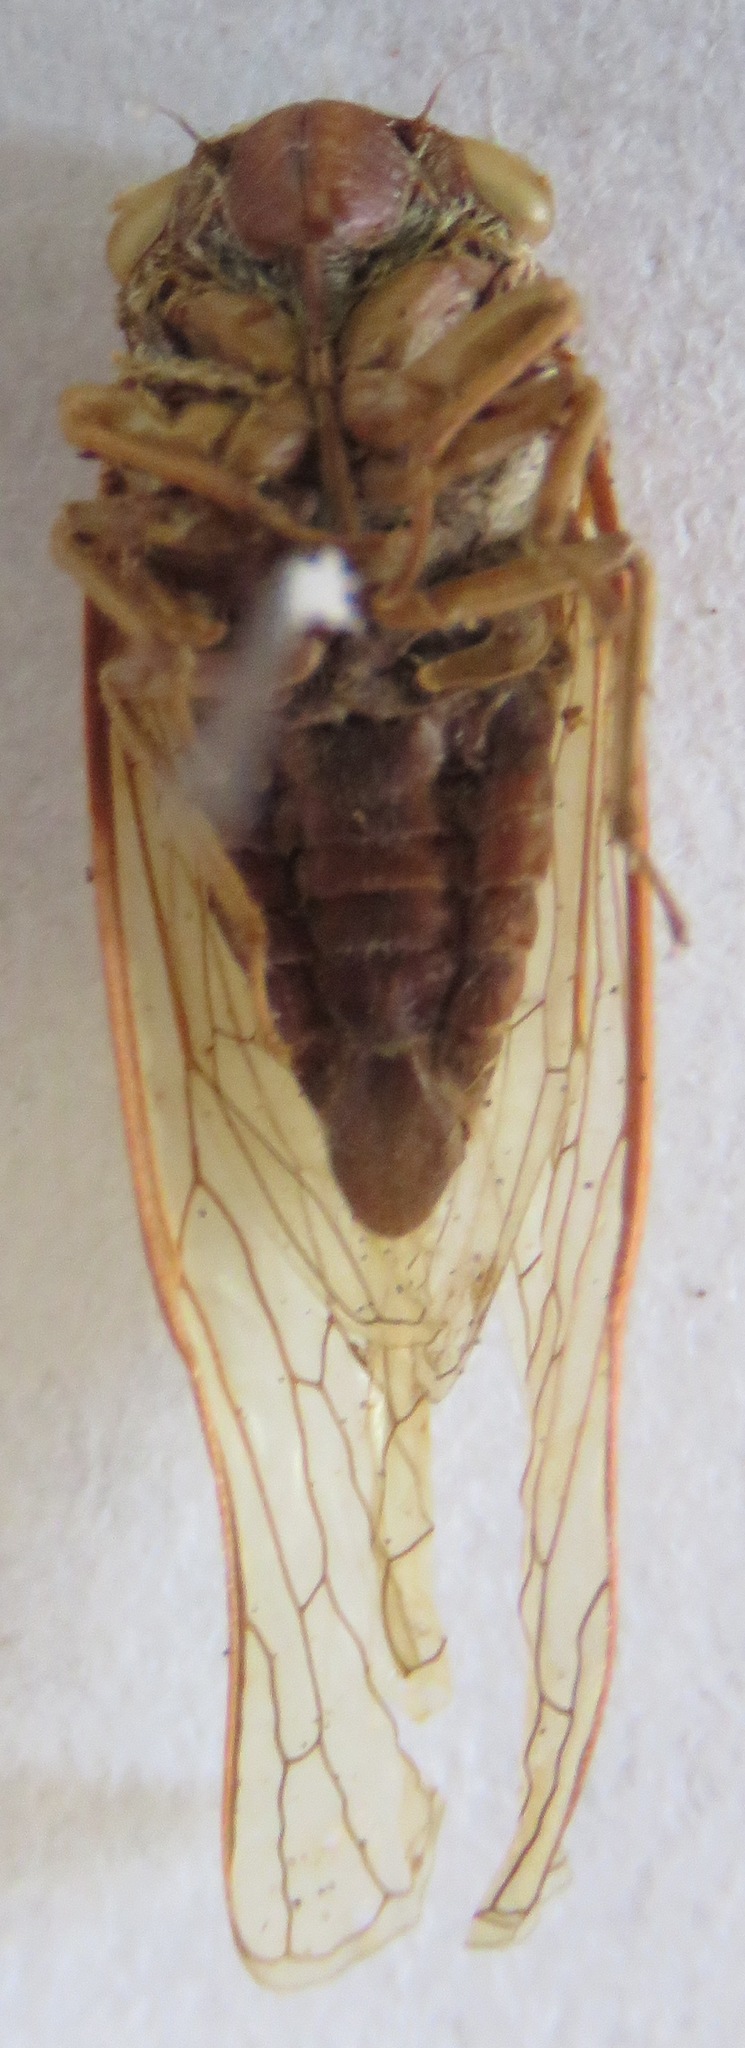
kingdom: Animalia
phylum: Arthropoda
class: Insecta
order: Hemiptera
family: Cicadidae
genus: Herrera
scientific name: Herrera coyamensis
